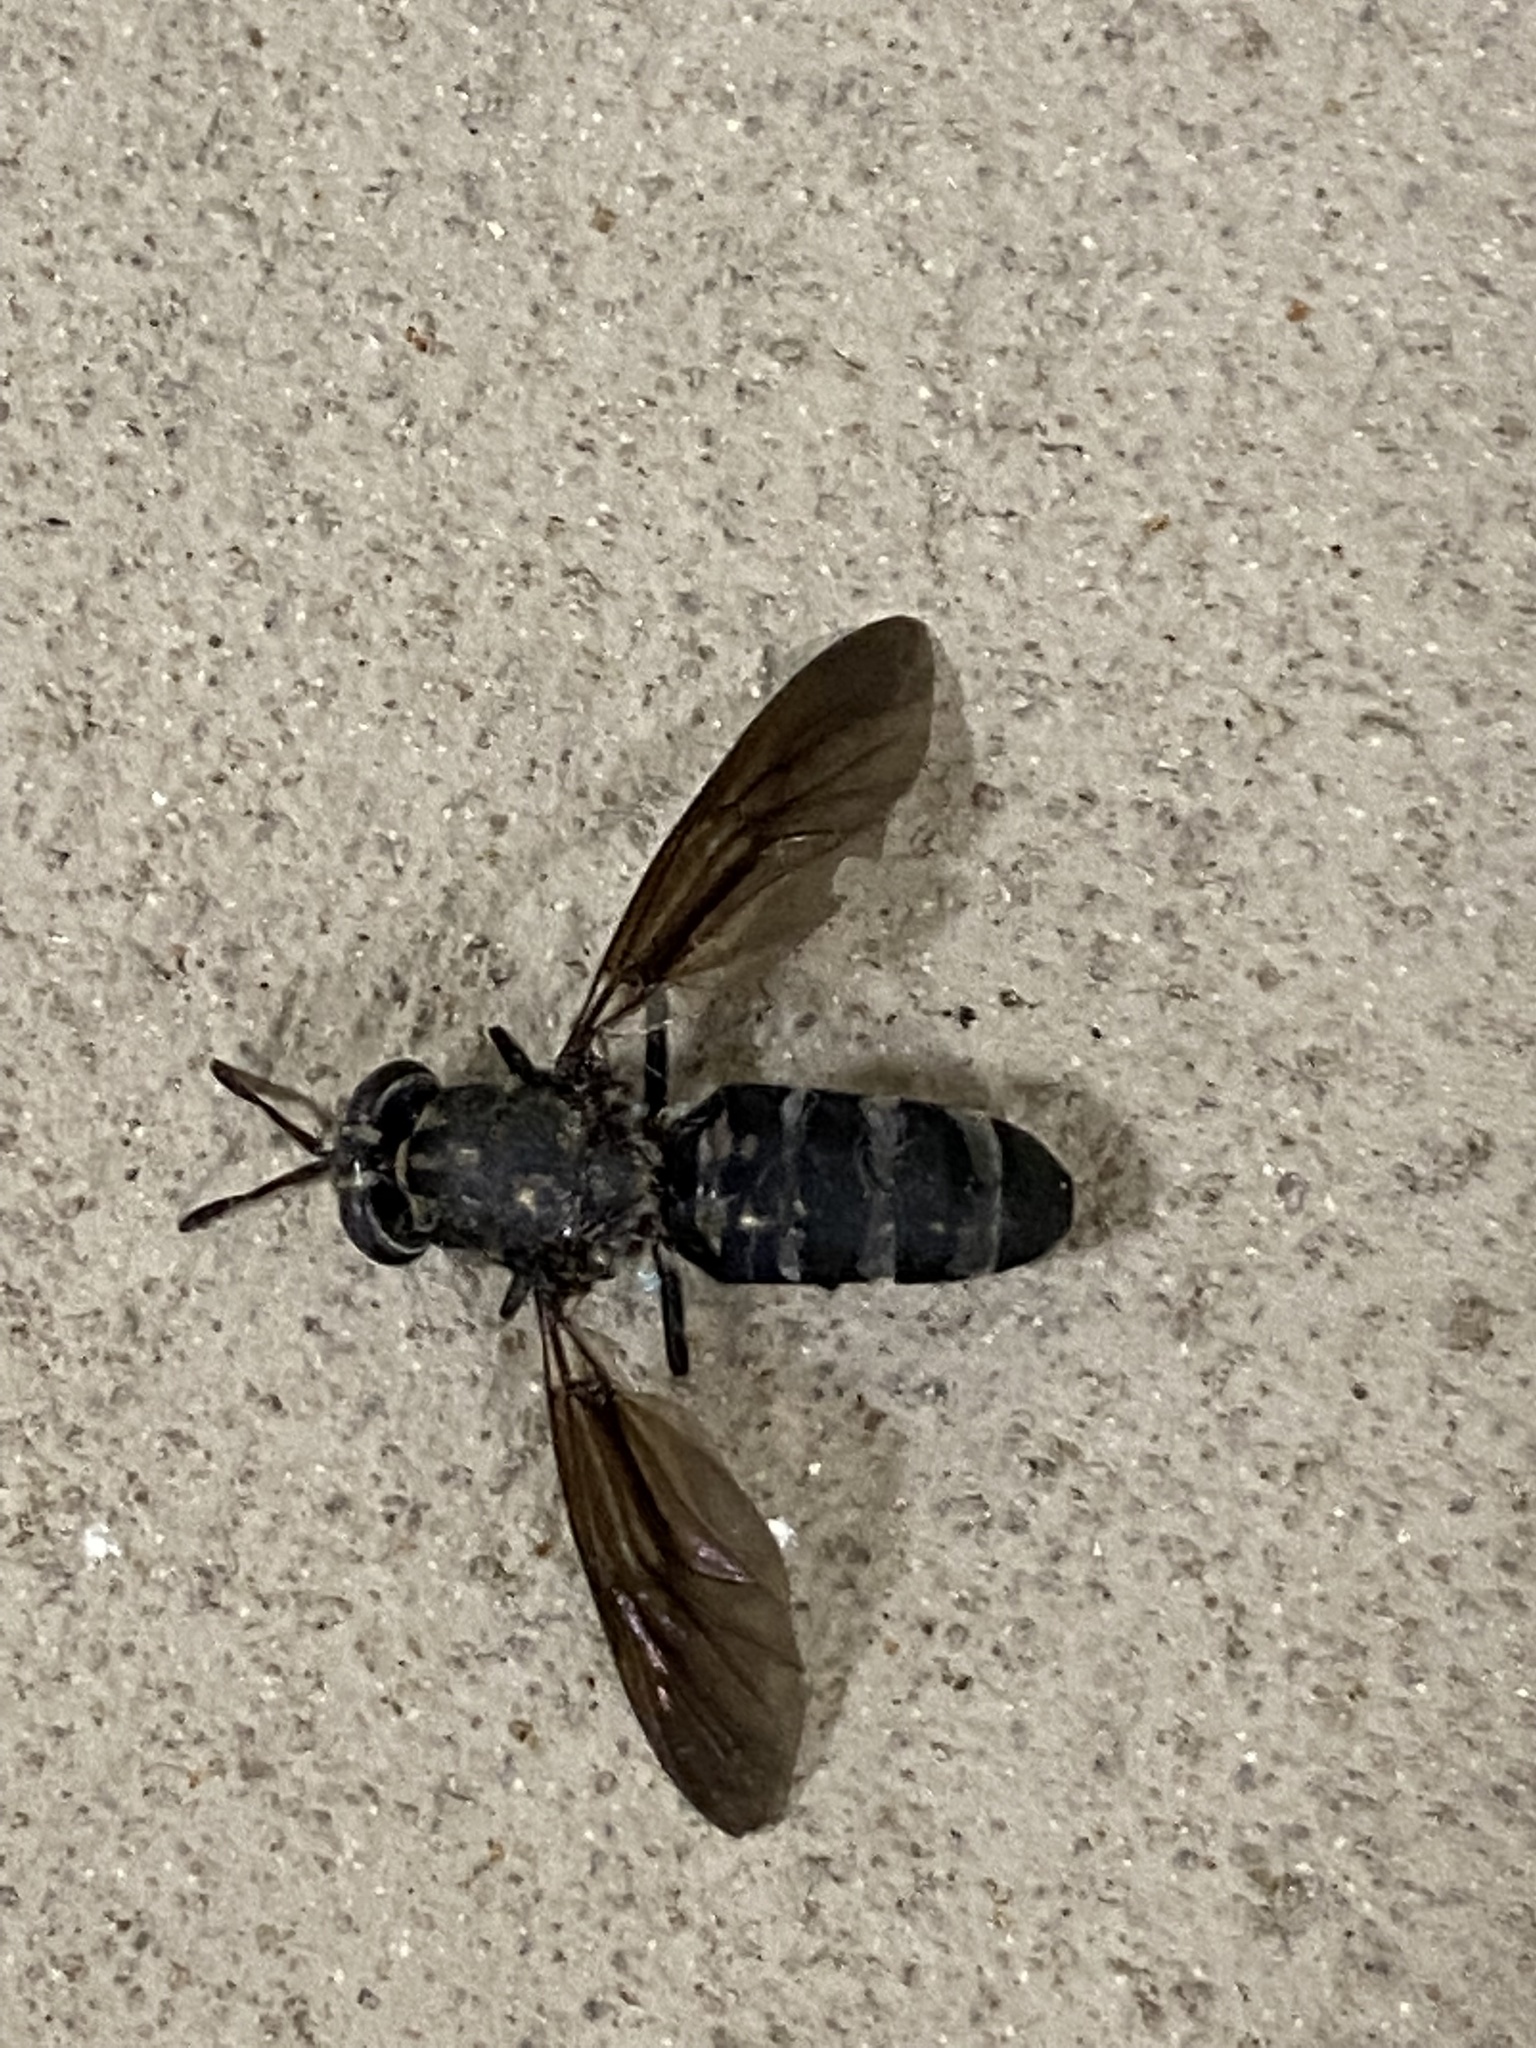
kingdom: Animalia
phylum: Arthropoda
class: Insecta
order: Diptera
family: Stratiomyidae
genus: Hermetia
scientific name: Hermetia illucens
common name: Black soldier fly
